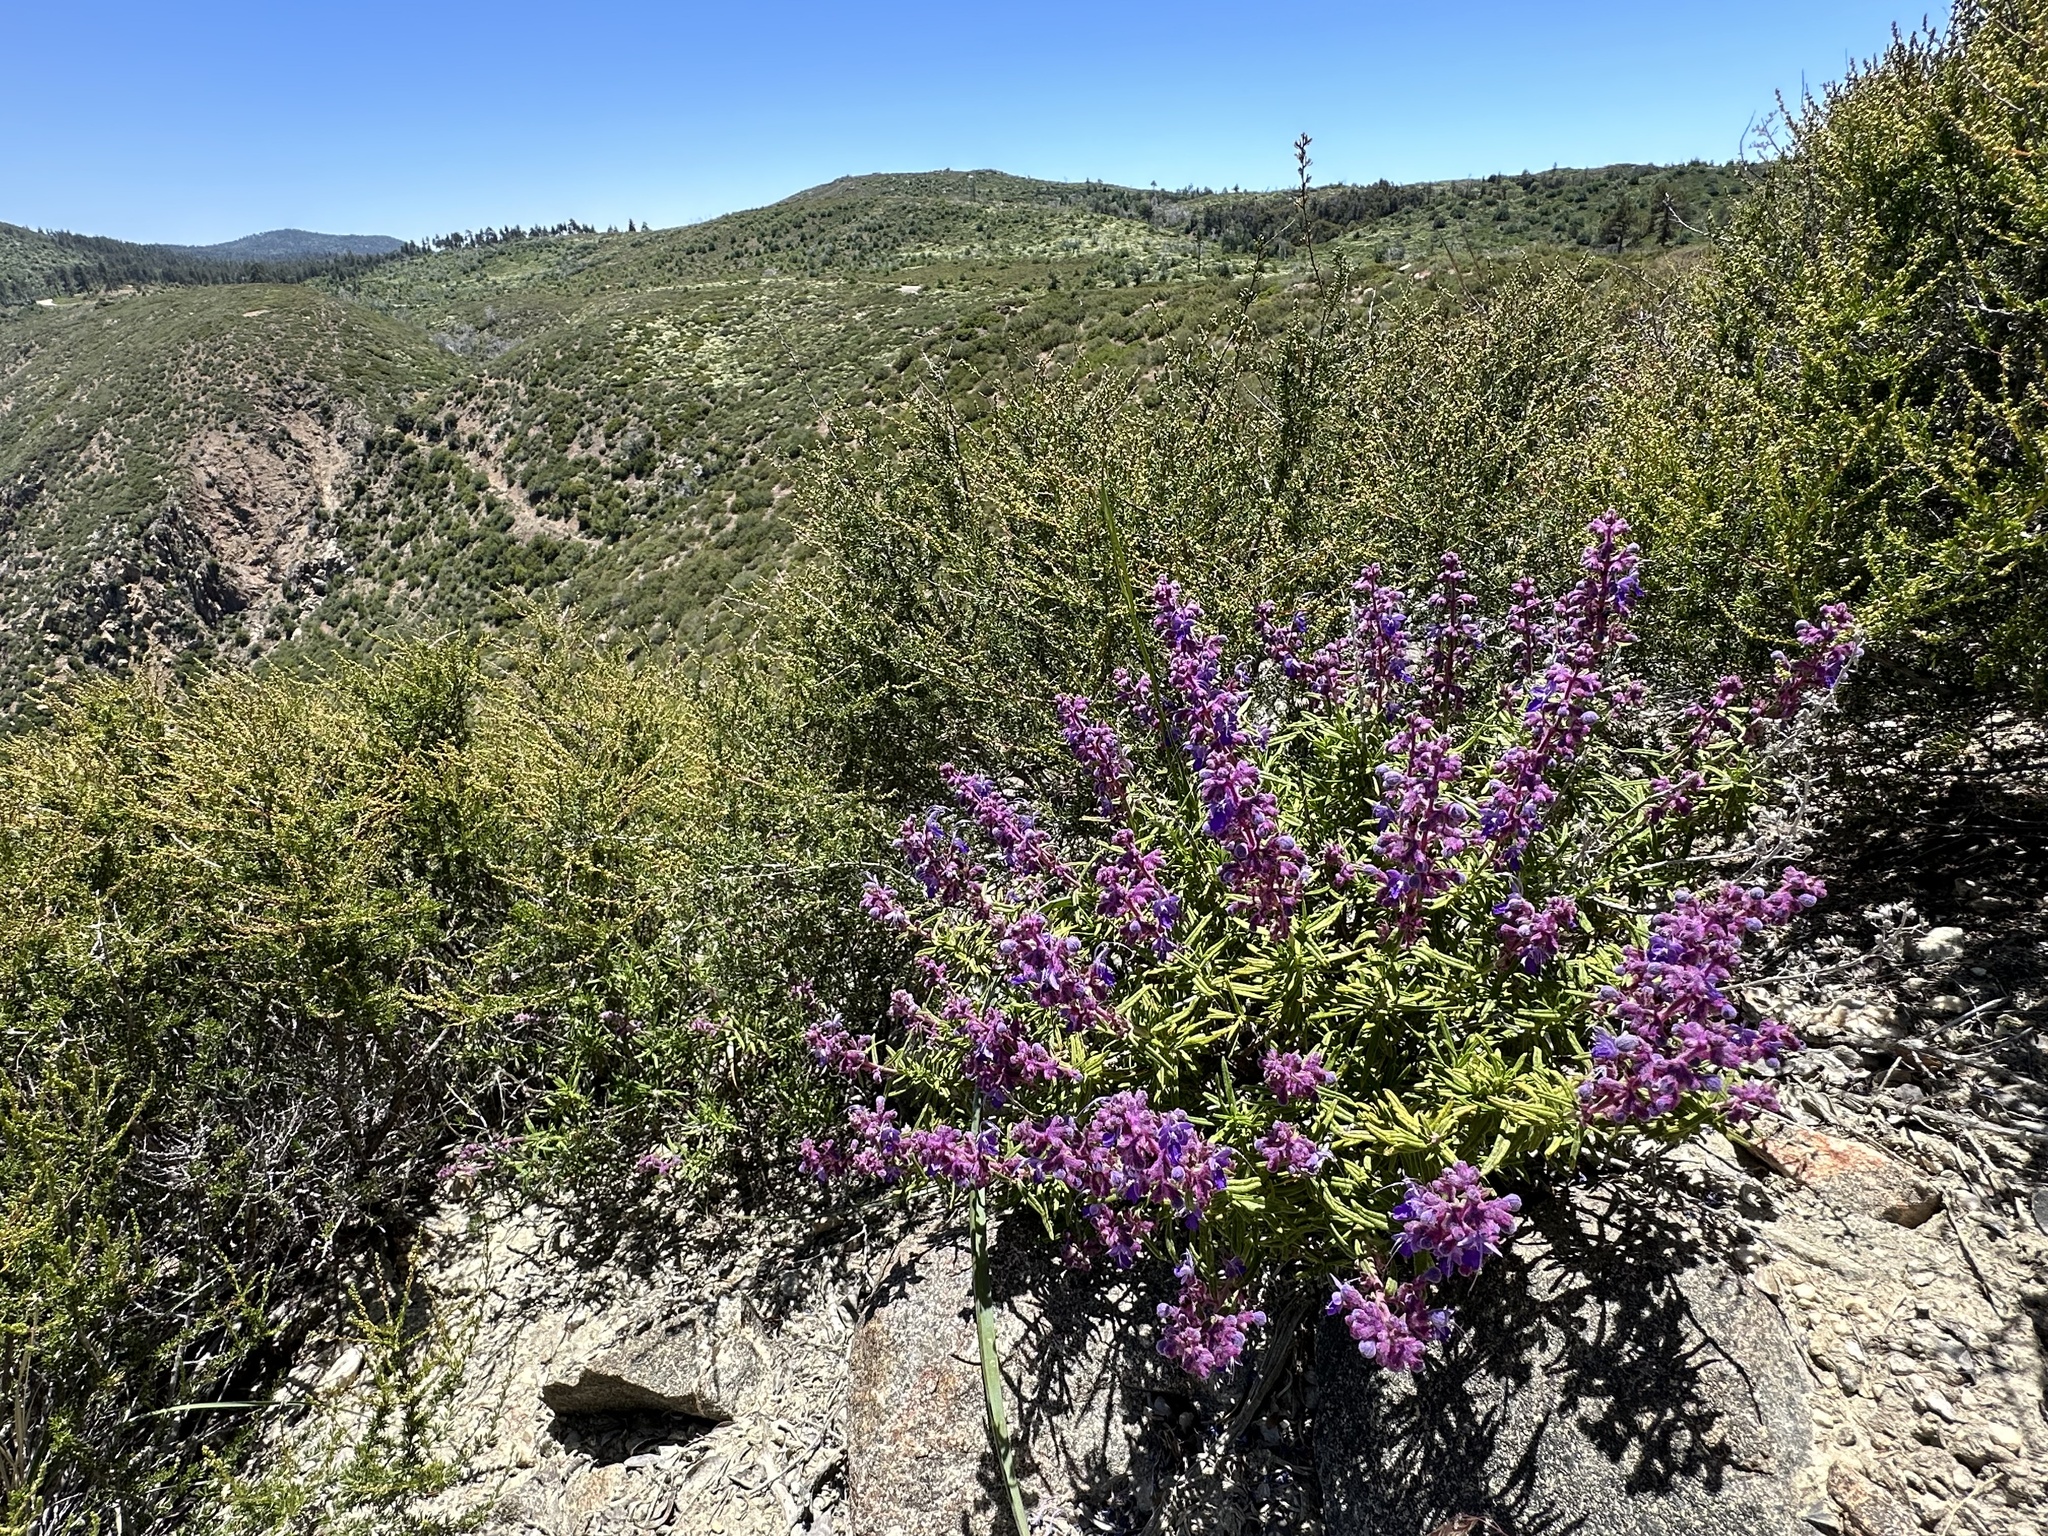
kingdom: Plantae
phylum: Tracheophyta
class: Magnoliopsida
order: Lamiales
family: Lamiaceae
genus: Trichostema
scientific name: Trichostema parishii
